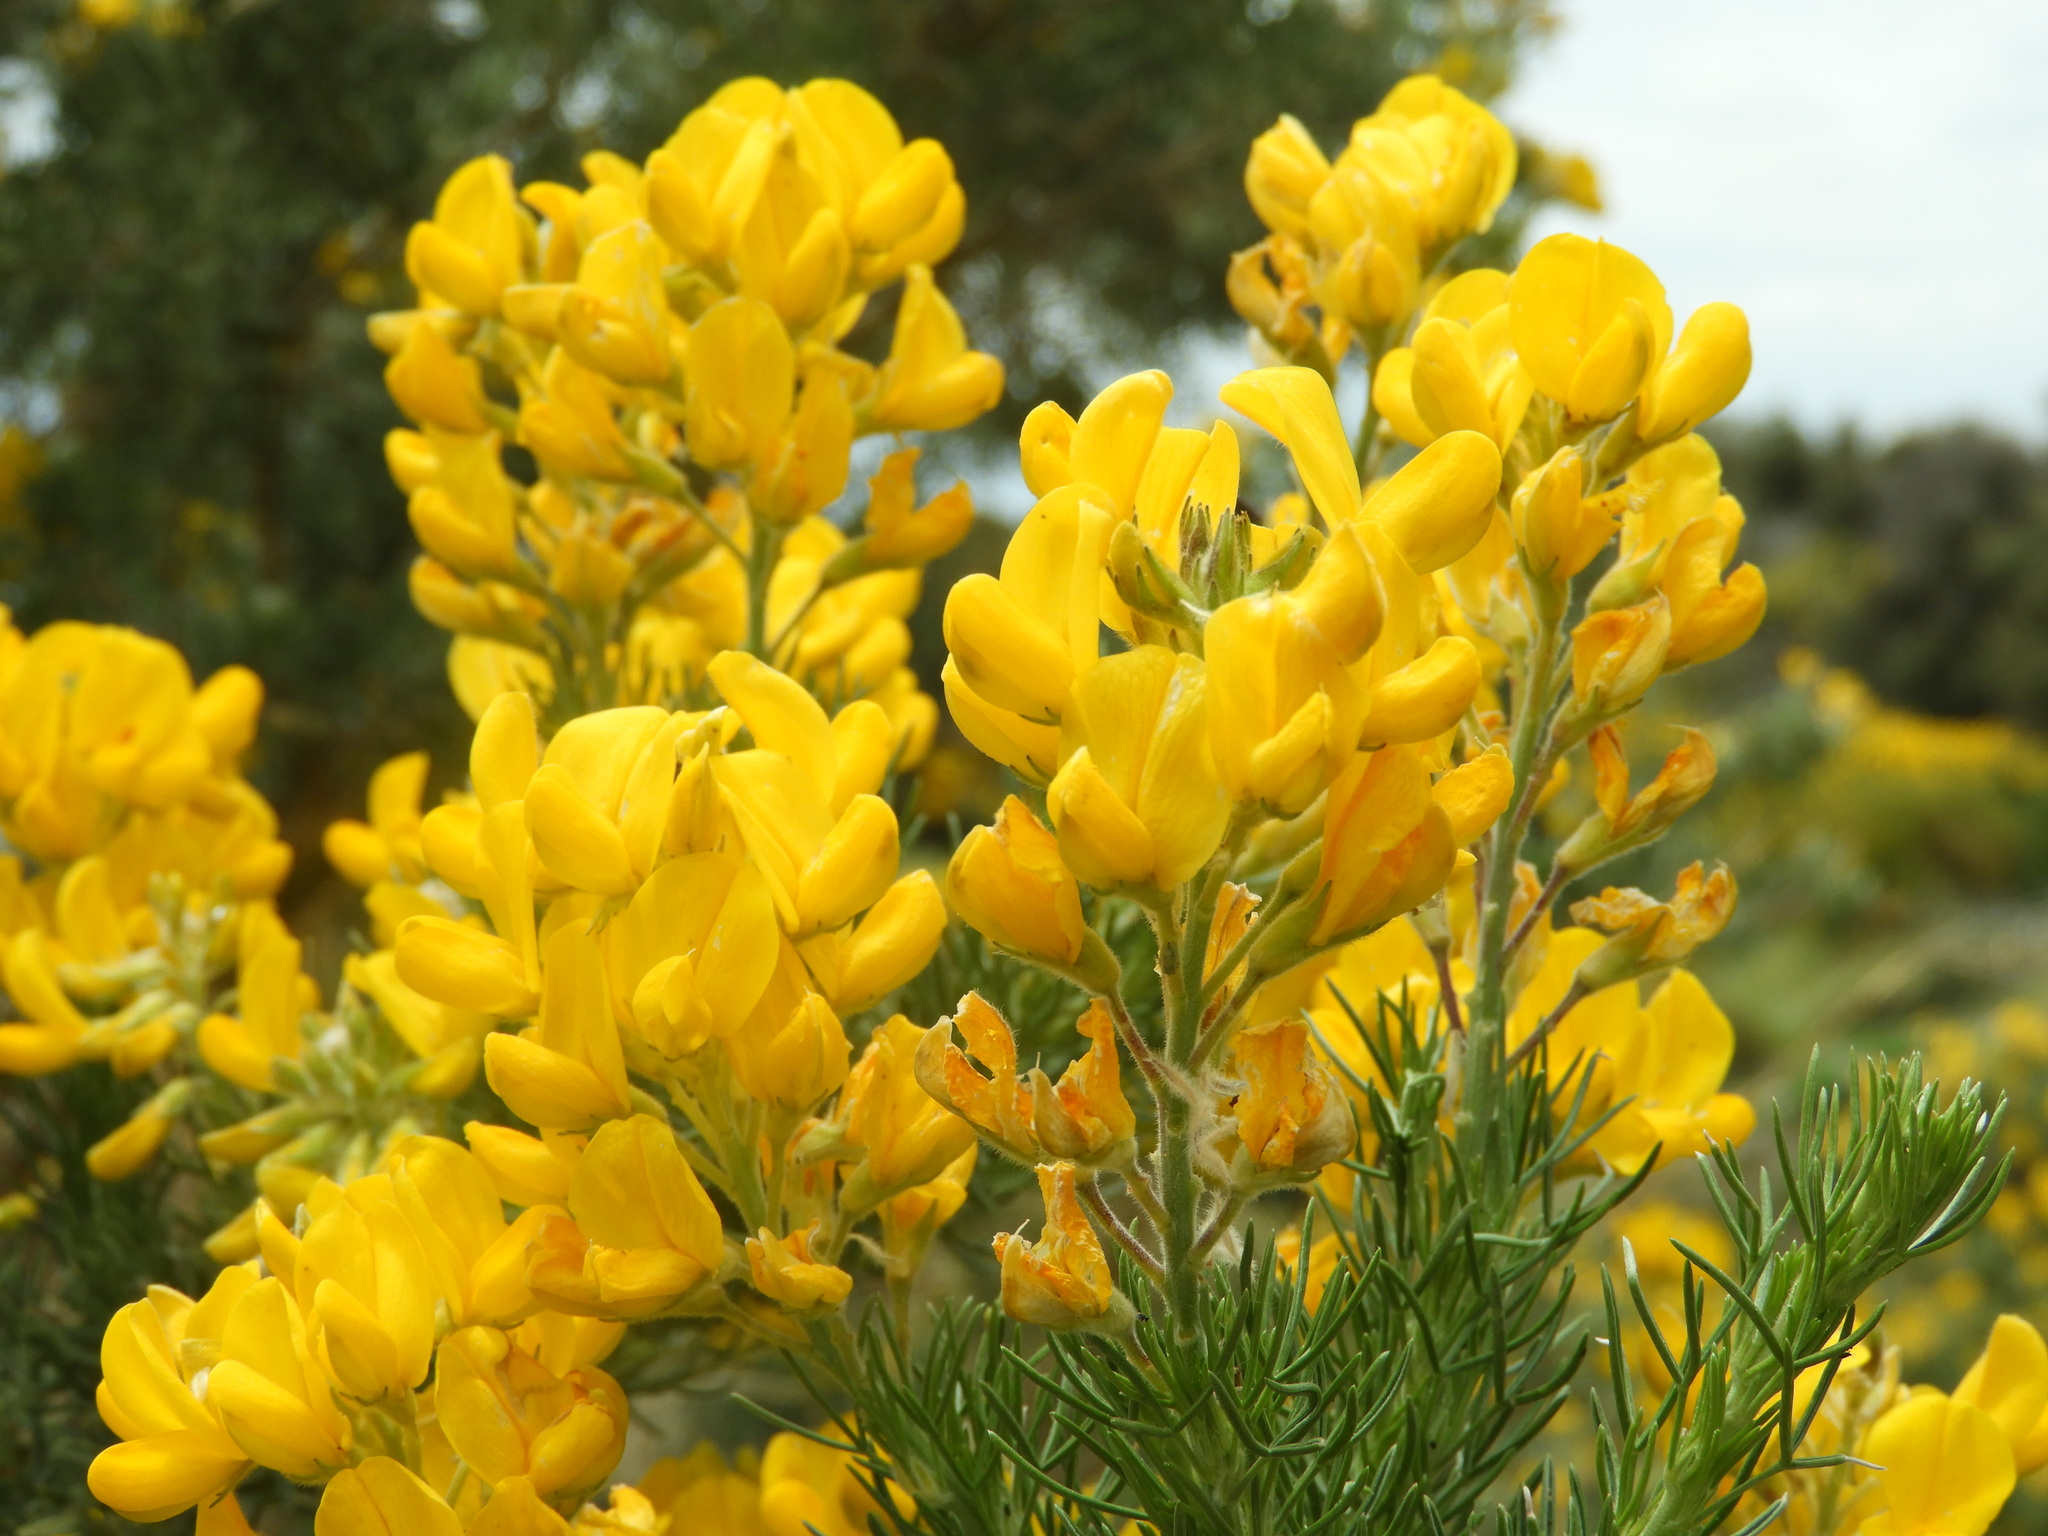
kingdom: Plantae
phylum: Tracheophyta
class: Magnoliopsida
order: Fabales
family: Fabaceae
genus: Adenocarpus
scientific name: Adenocarpus decorticans
